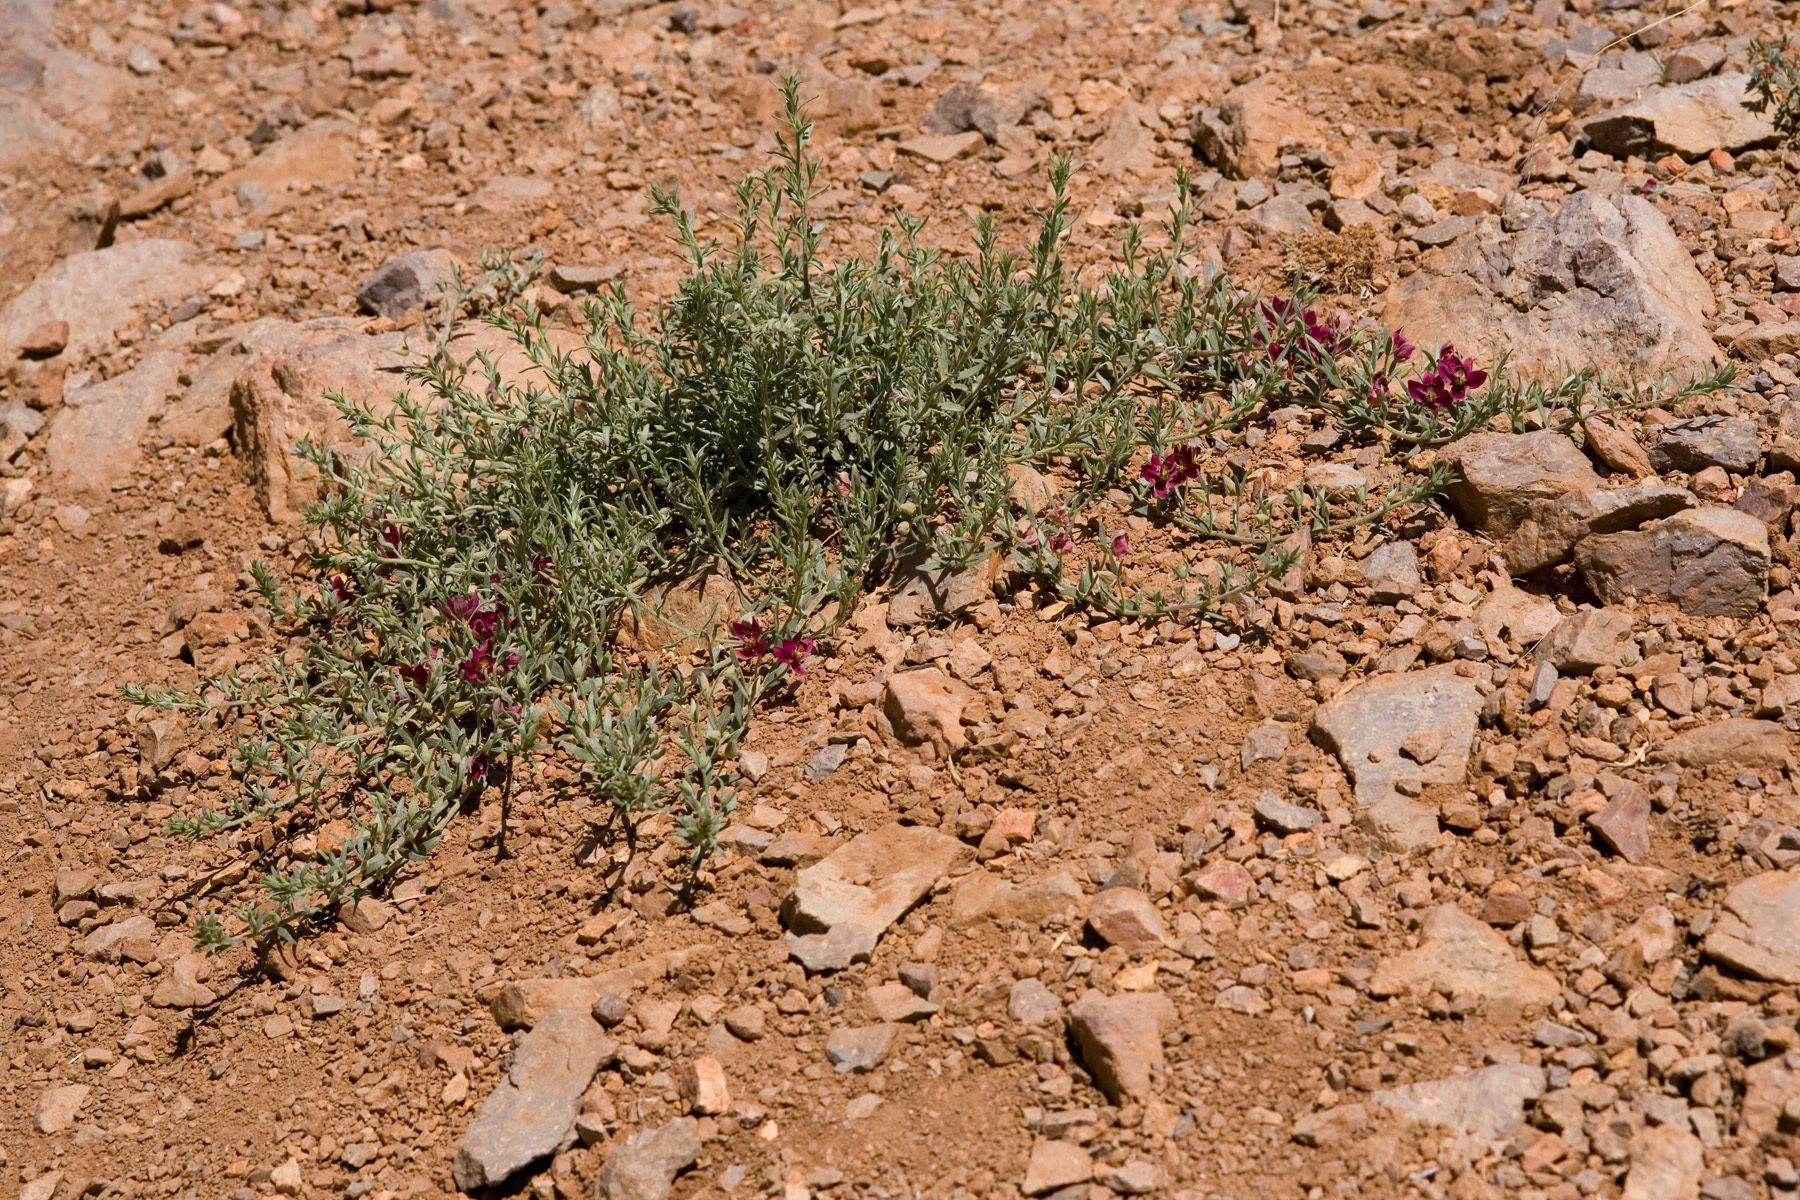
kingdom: Plantae
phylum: Tracheophyta
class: Magnoliopsida
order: Zygophyllales
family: Krameriaceae
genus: Krameria
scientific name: Krameria lanceolata
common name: Ratany
